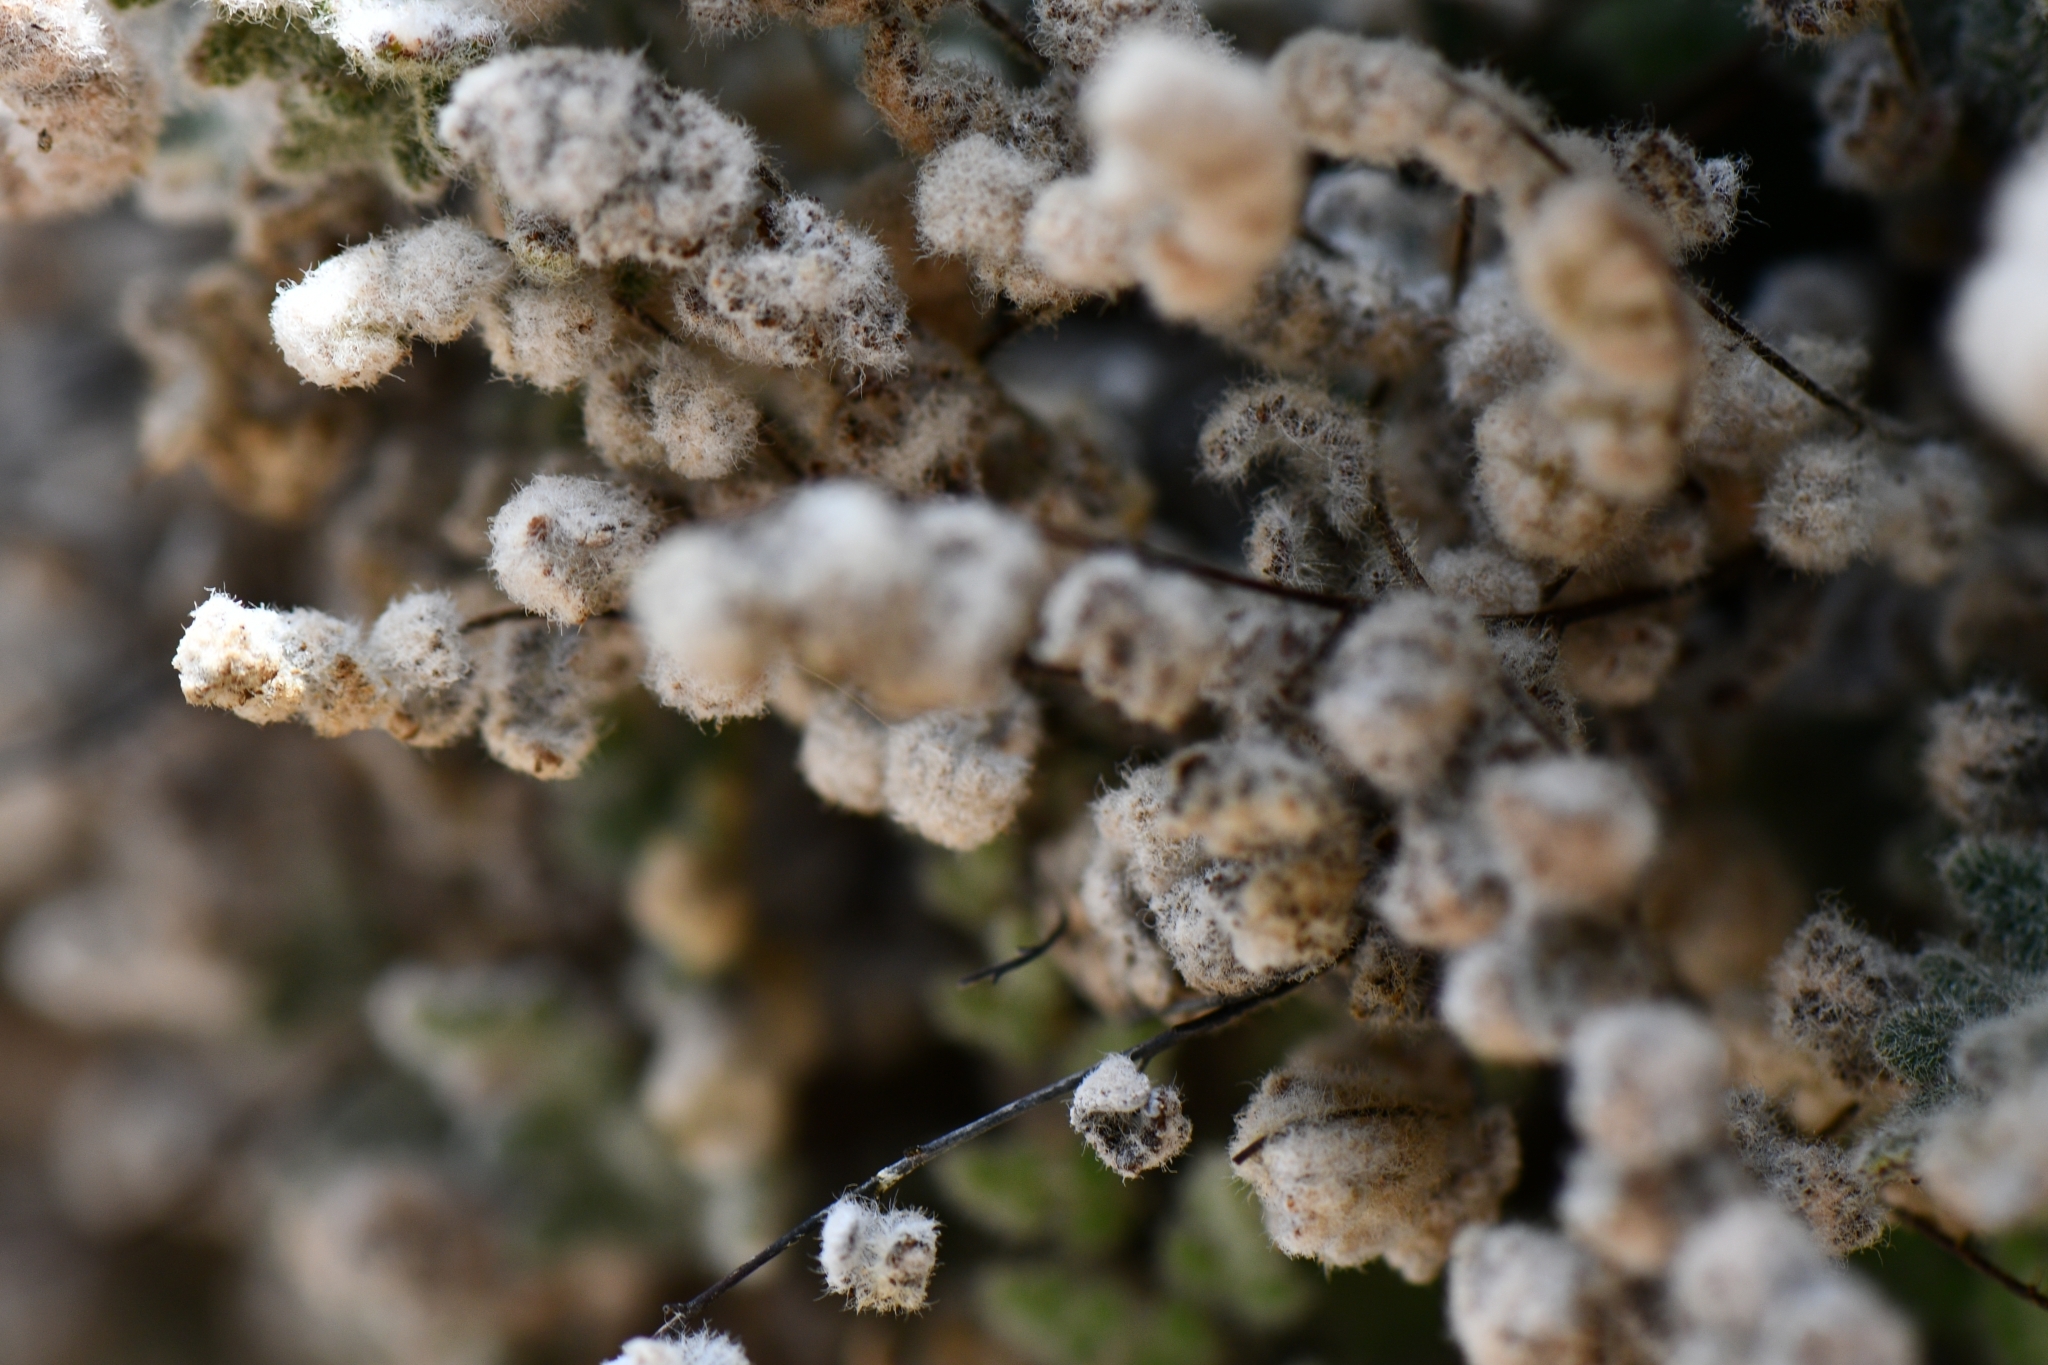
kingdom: Plantae
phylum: Tracheophyta
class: Polypodiopsida
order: Polypodiales
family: Pteridaceae
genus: Myriopteris
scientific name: Myriopteris parryi
